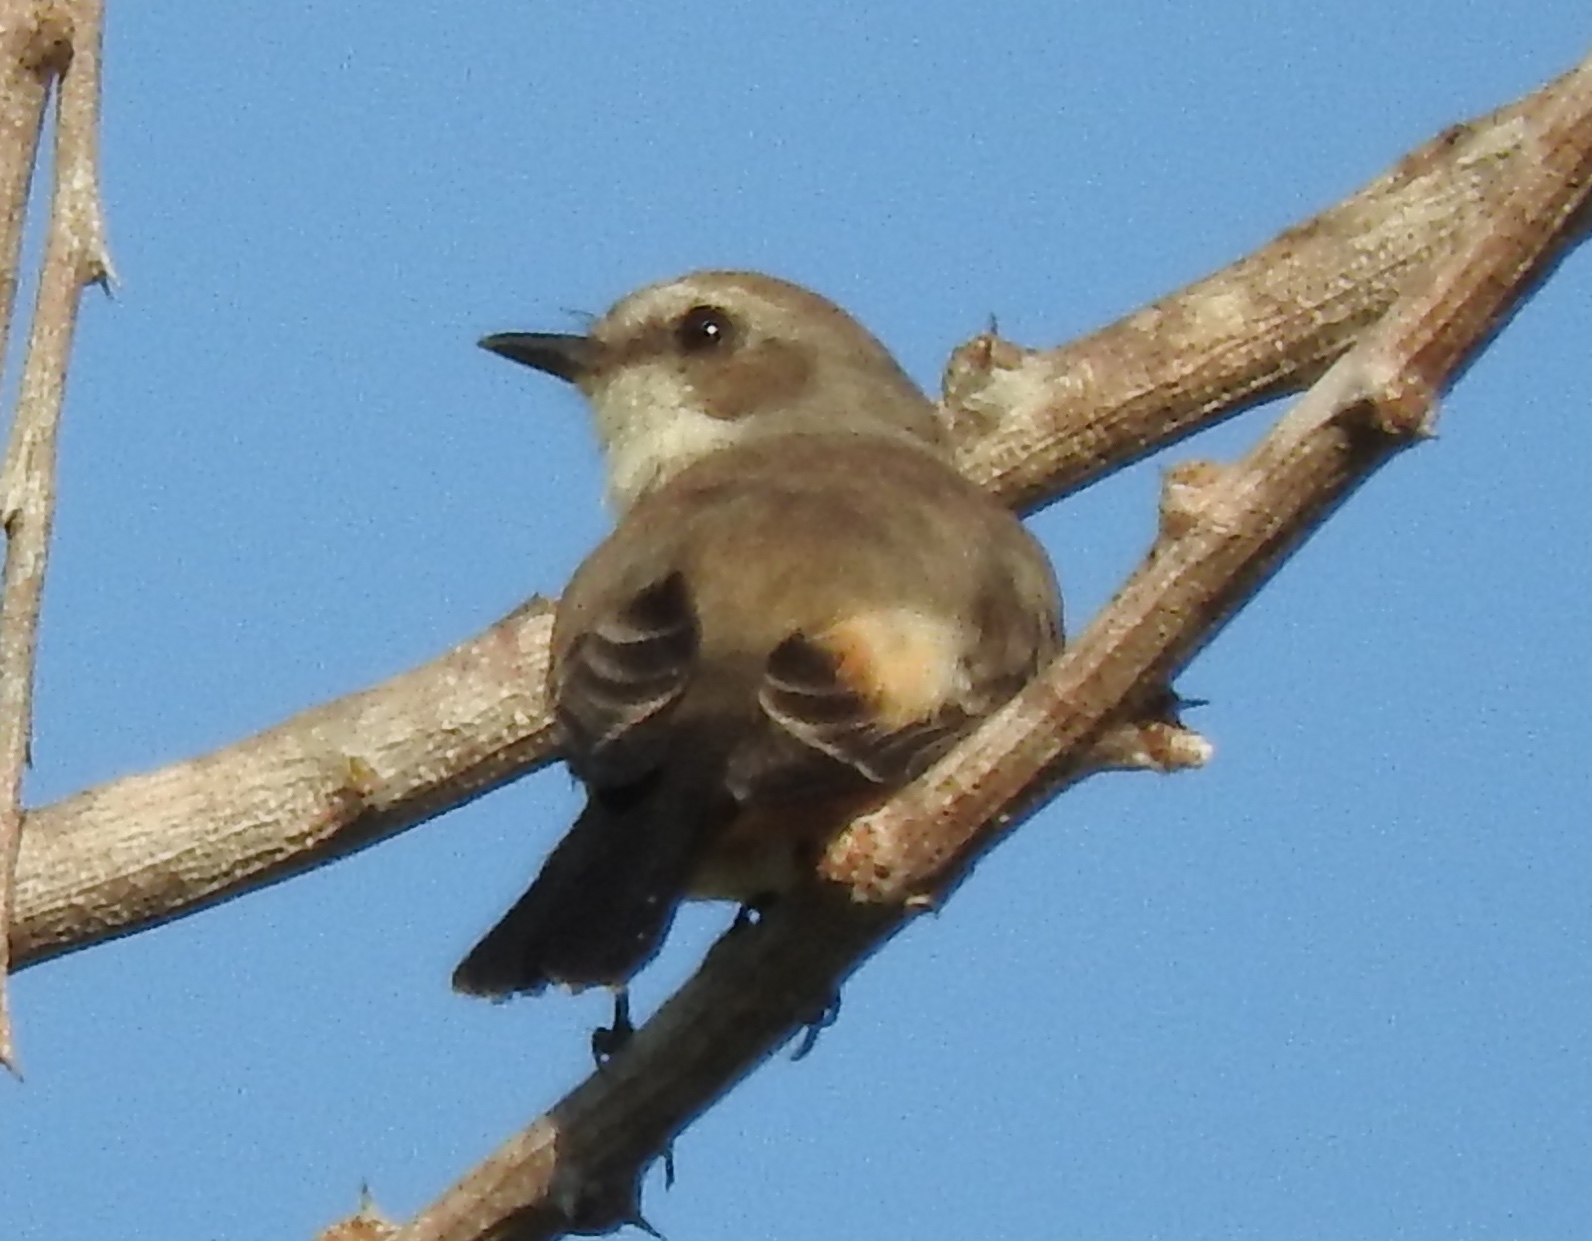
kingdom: Animalia
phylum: Chordata
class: Aves
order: Passeriformes
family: Tyrannidae
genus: Pyrocephalus
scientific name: Pyrocephalus rubinus
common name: Vermilion flycatcher
